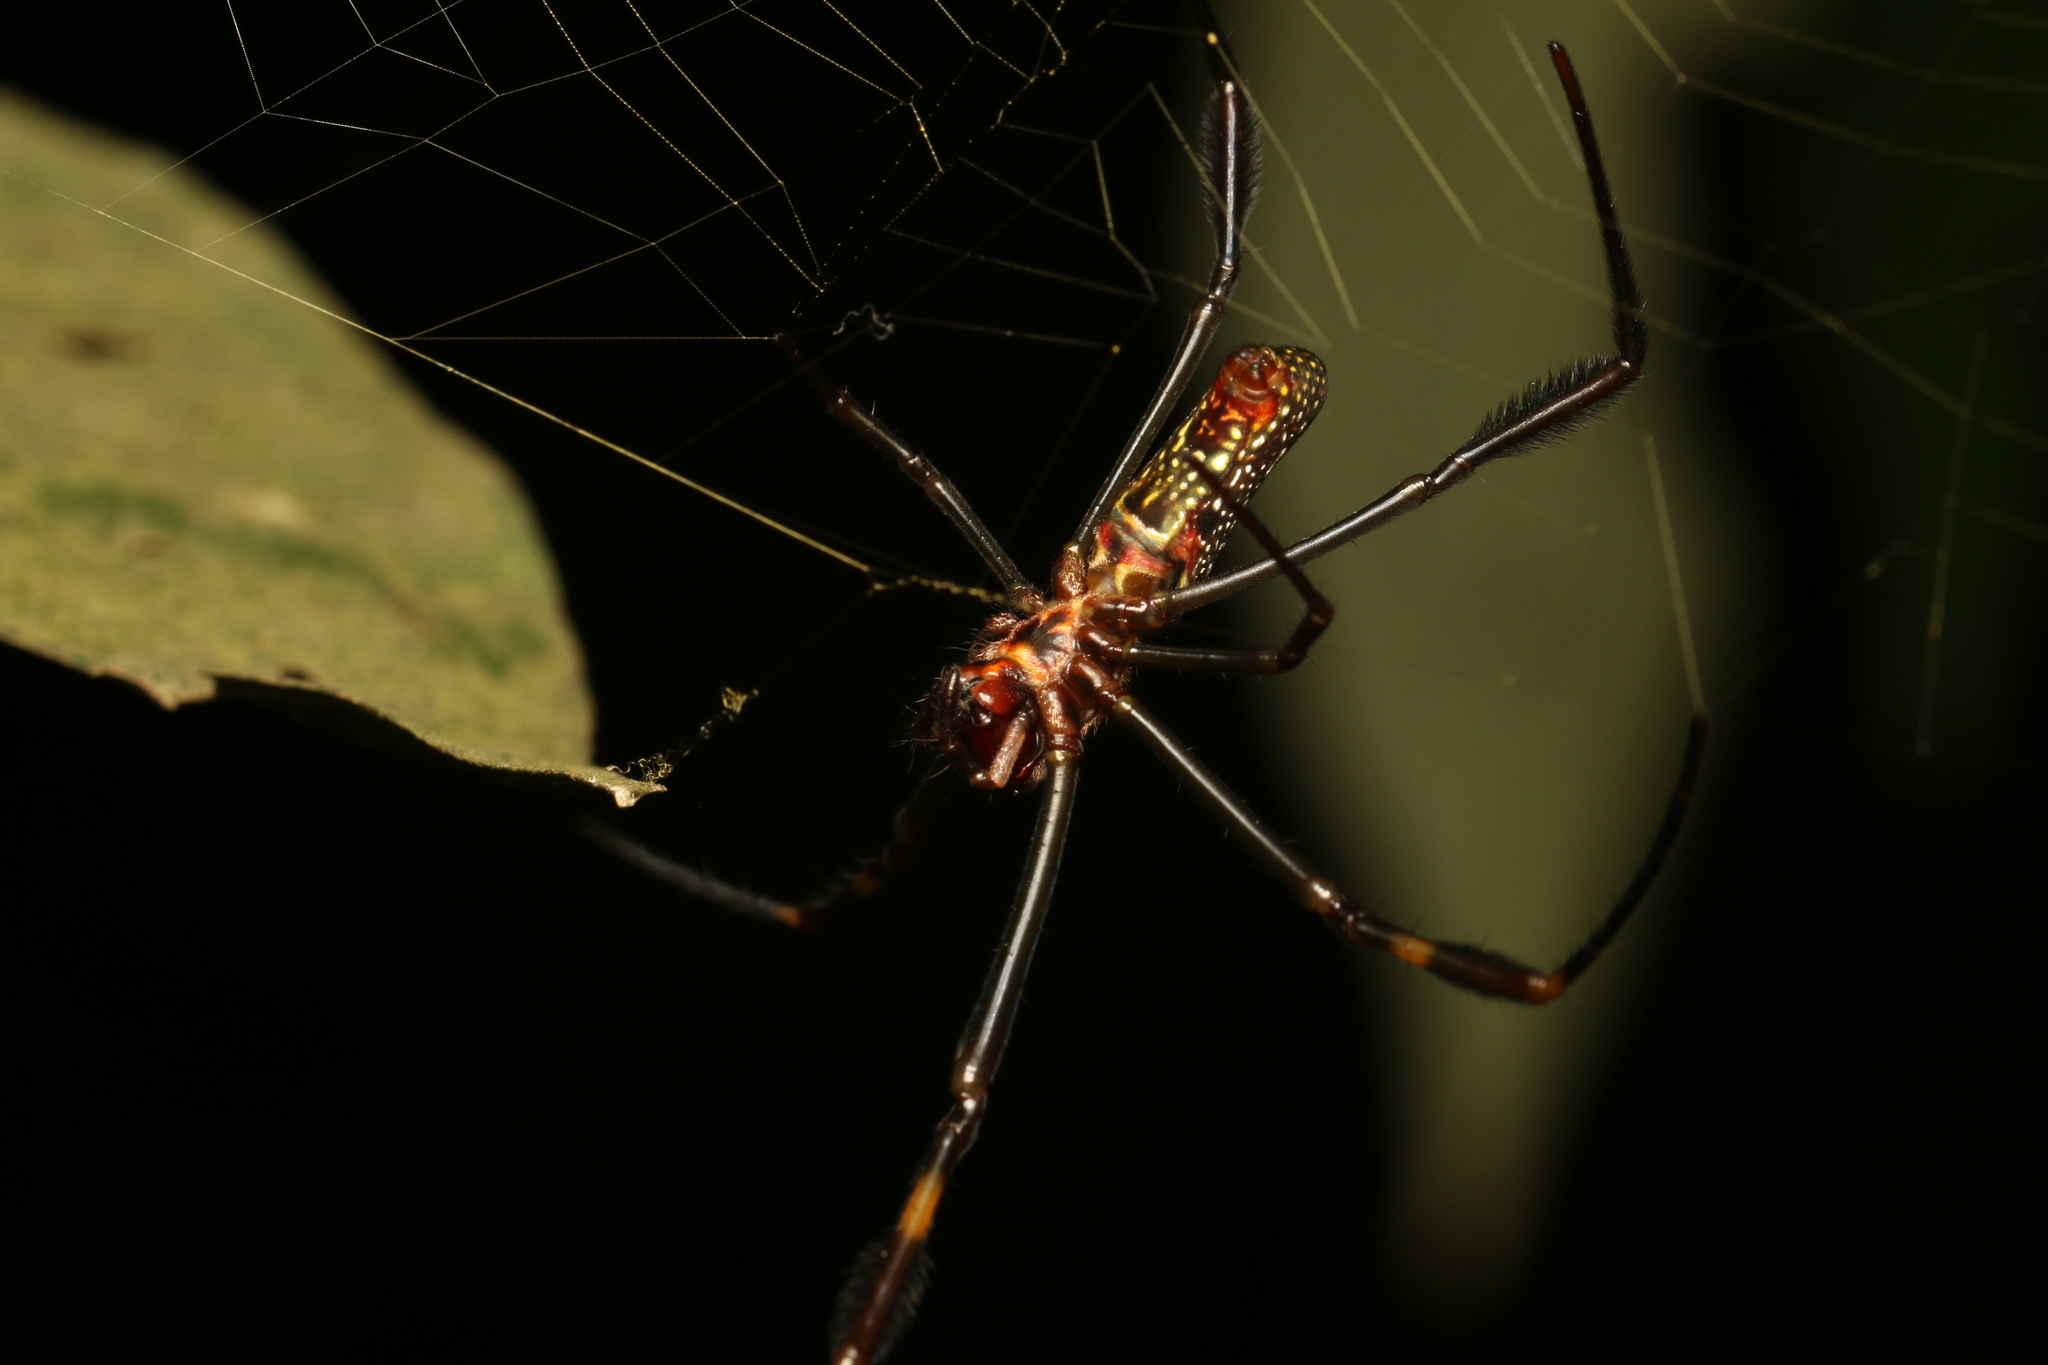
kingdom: Animalia
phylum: Arthropoda
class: Arachnida
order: Araneae
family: Araneidae
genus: Trichonephila
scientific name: Trichonephila clavipes
